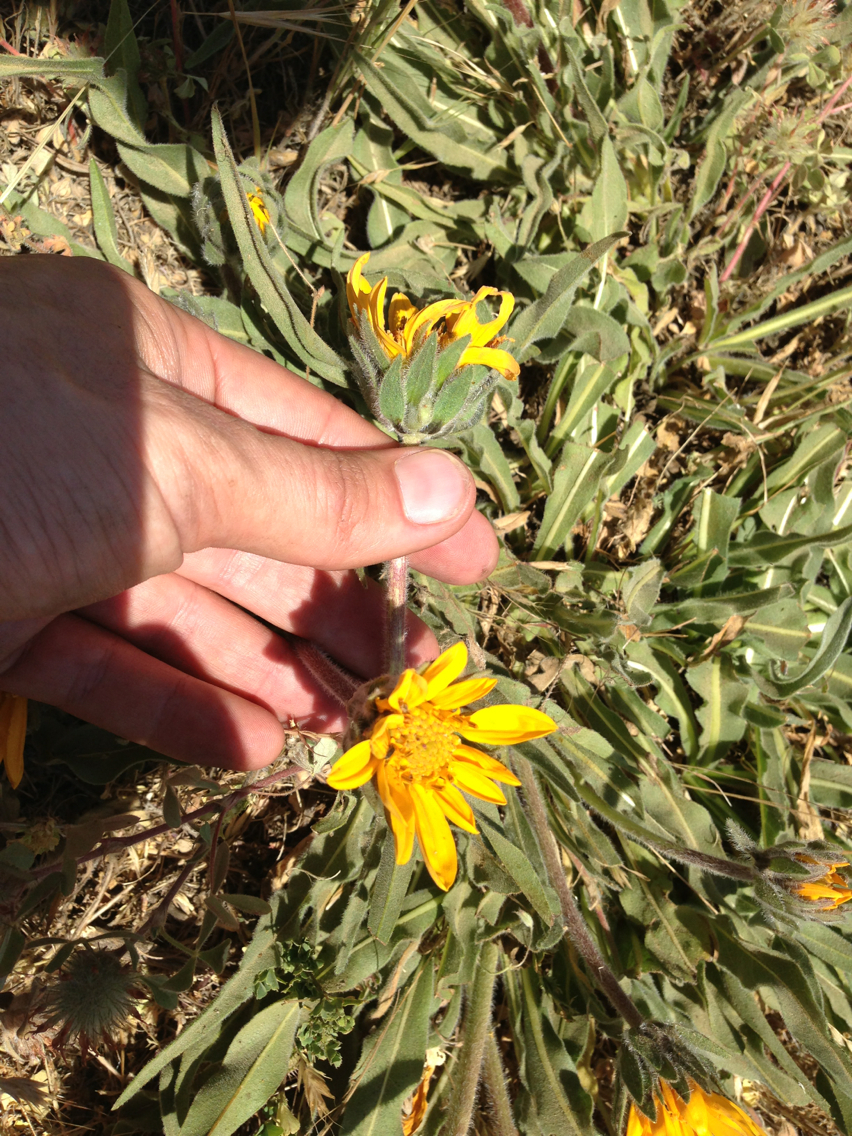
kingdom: Plantae
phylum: Tracheophyta
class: Magnoliopsida
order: Asterales
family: Asteraceae
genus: Wyethia
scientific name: Wyethia angustifolia
